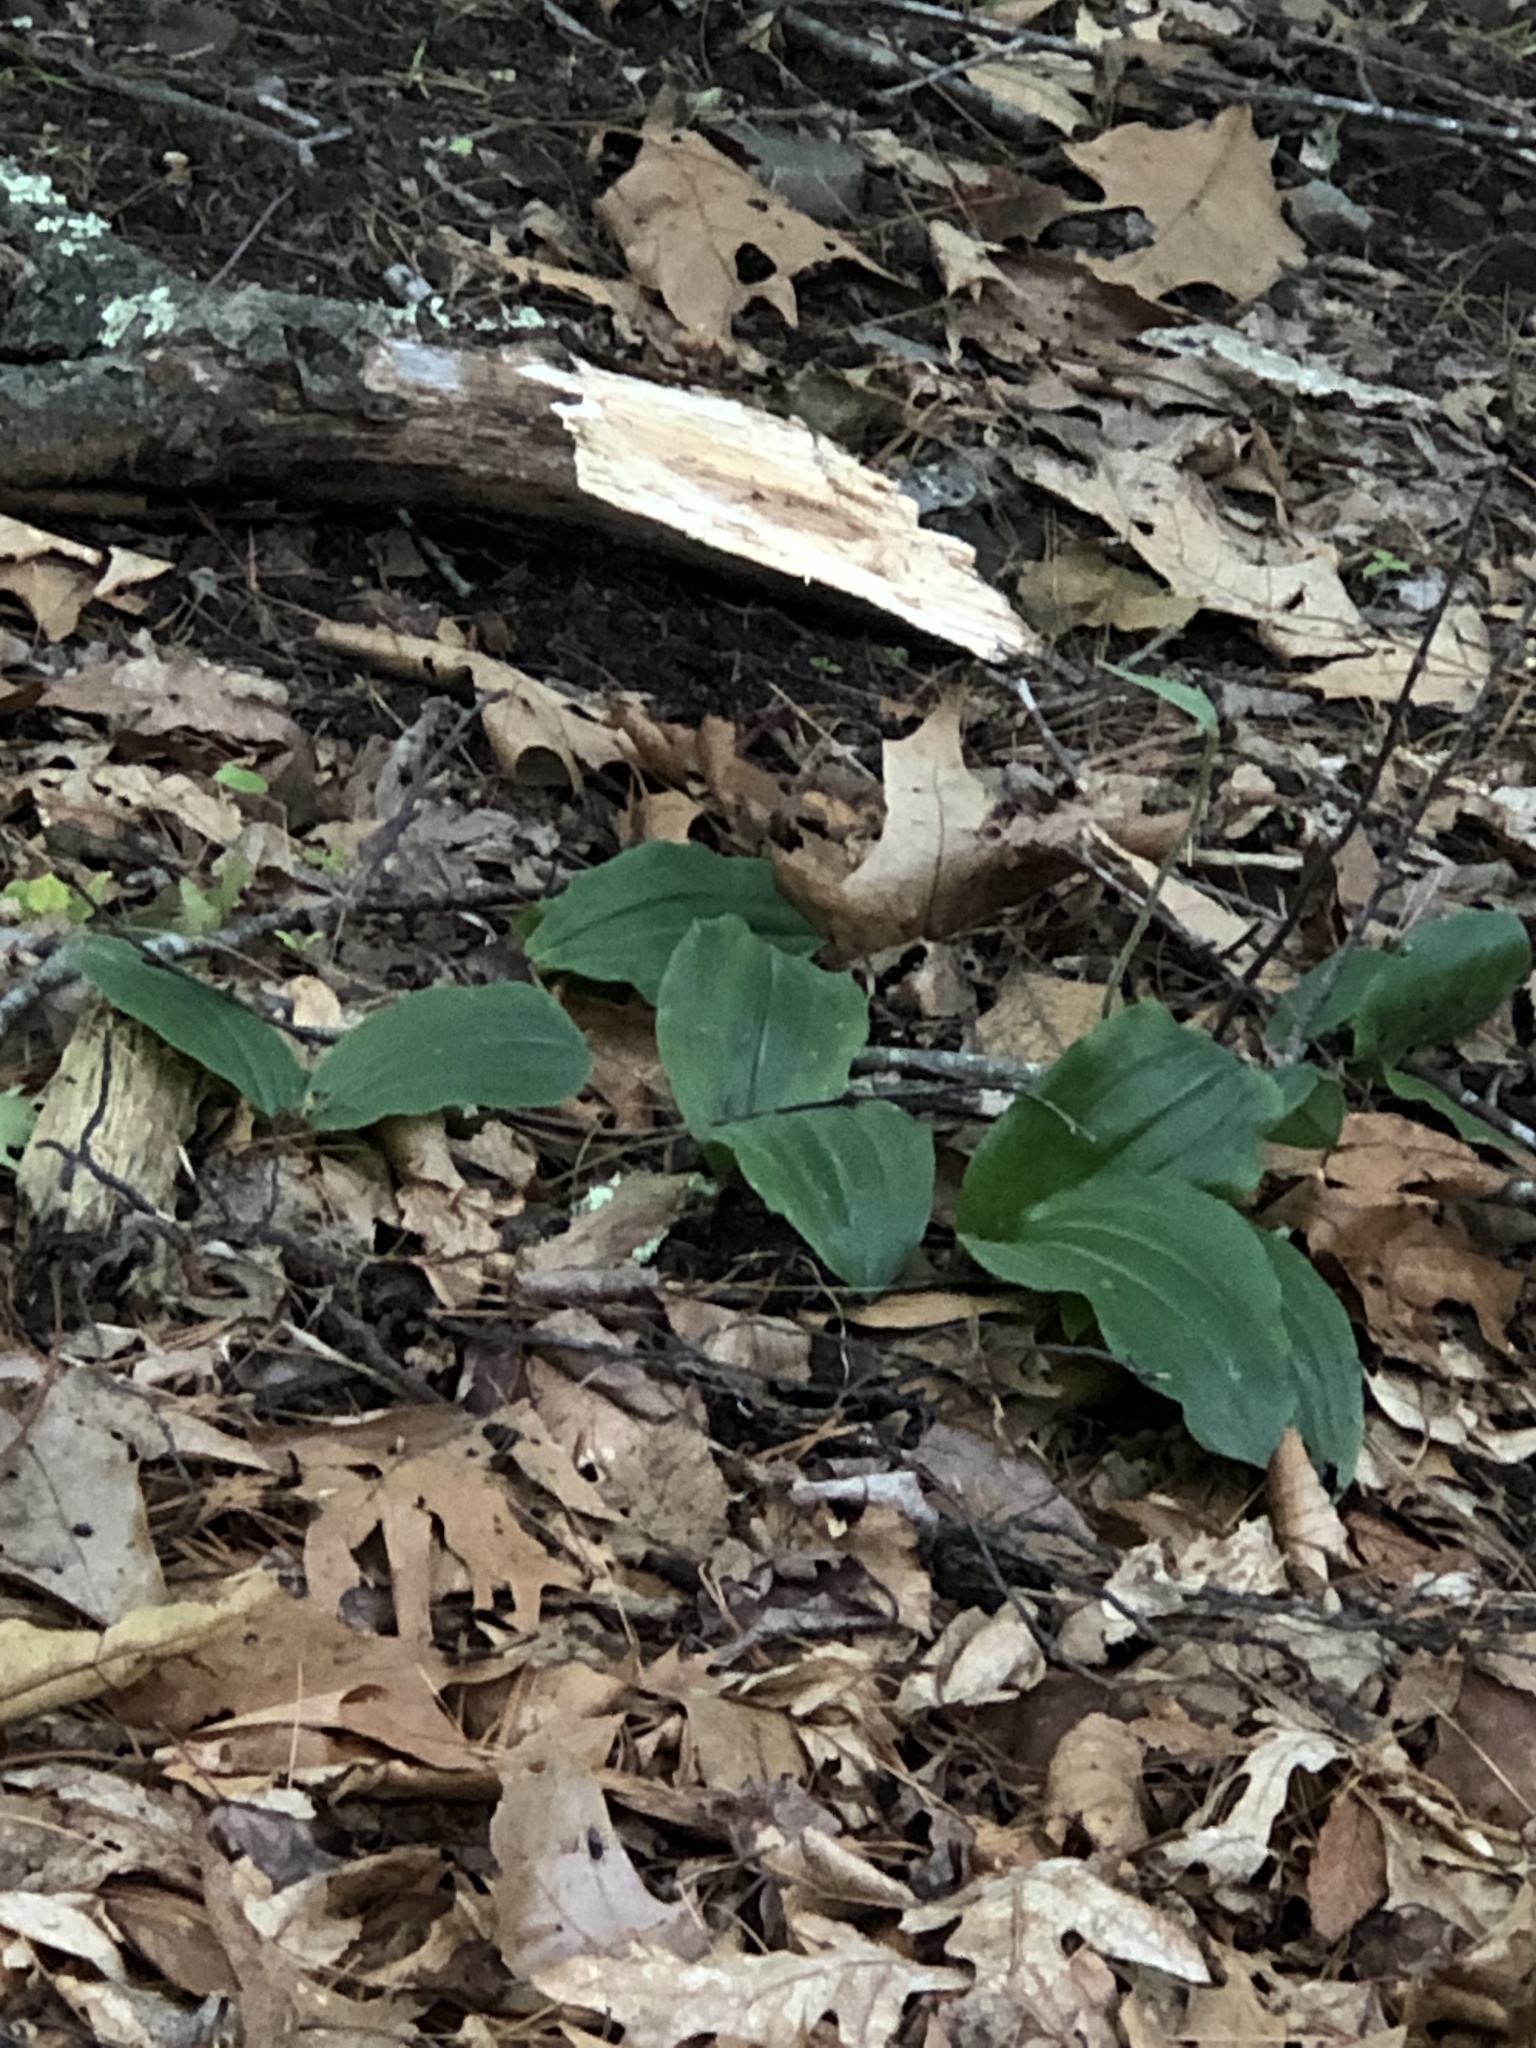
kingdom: Plantae
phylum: Tracheophyta
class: Liliopsida
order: Asparagales
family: Orchidaceae
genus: Cypripedium
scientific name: Cypripedium acaule
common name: Pink lady's-slipper
